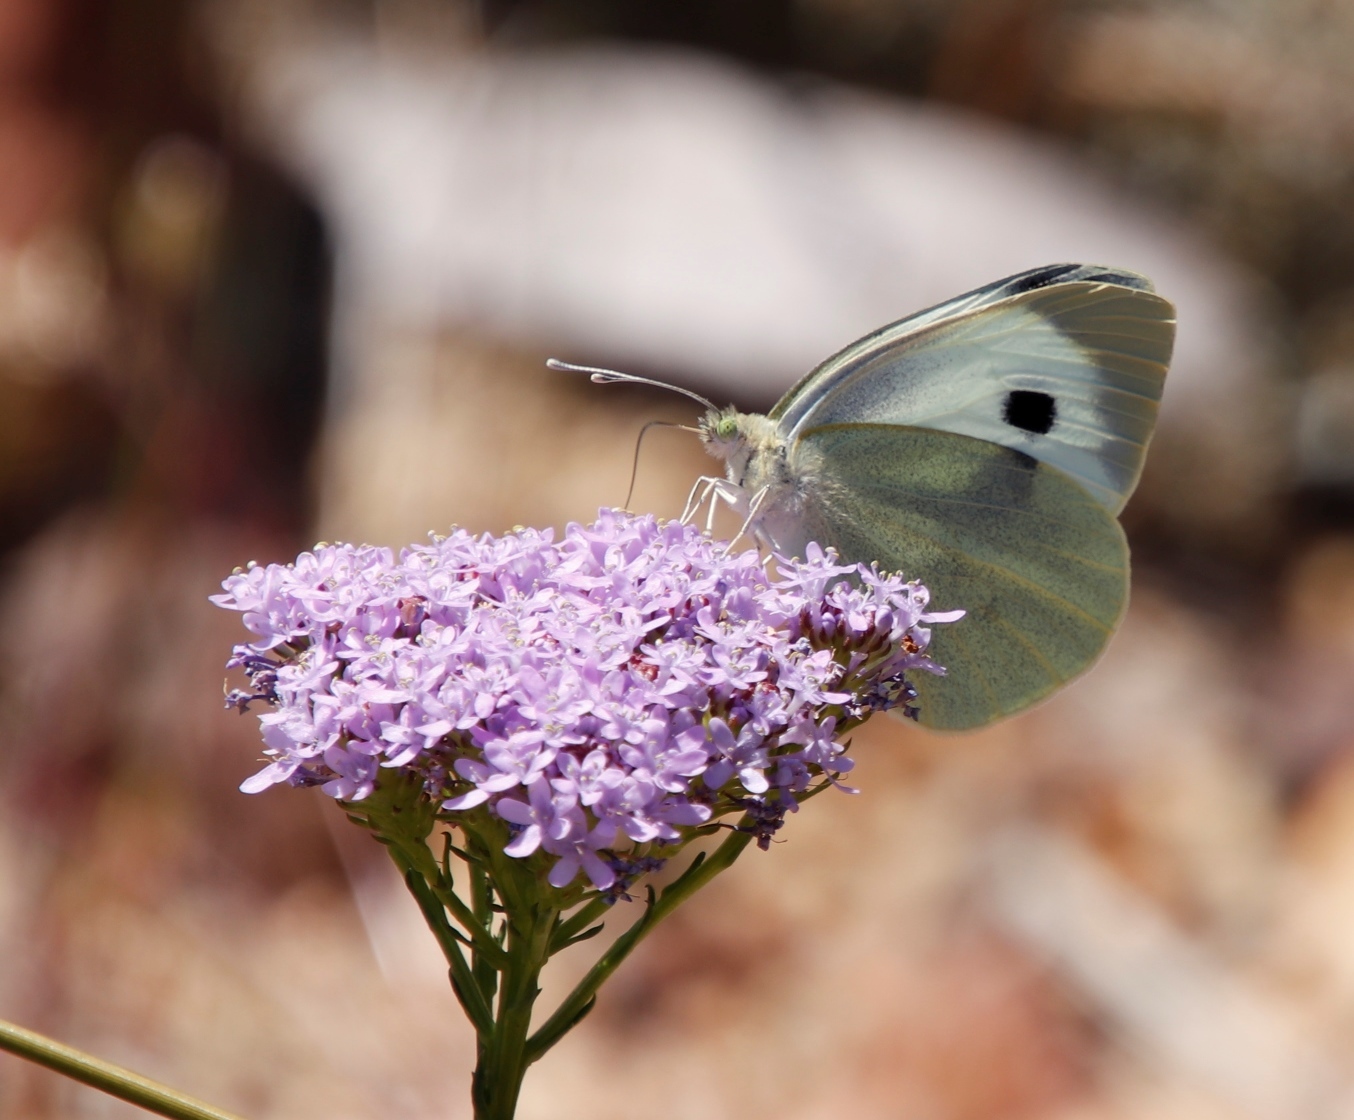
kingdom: Animalia
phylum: Arthropoda
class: Insecta
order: Lepidoptera
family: Pieridae
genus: Pieris
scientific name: Pieris brassicae
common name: Large white
